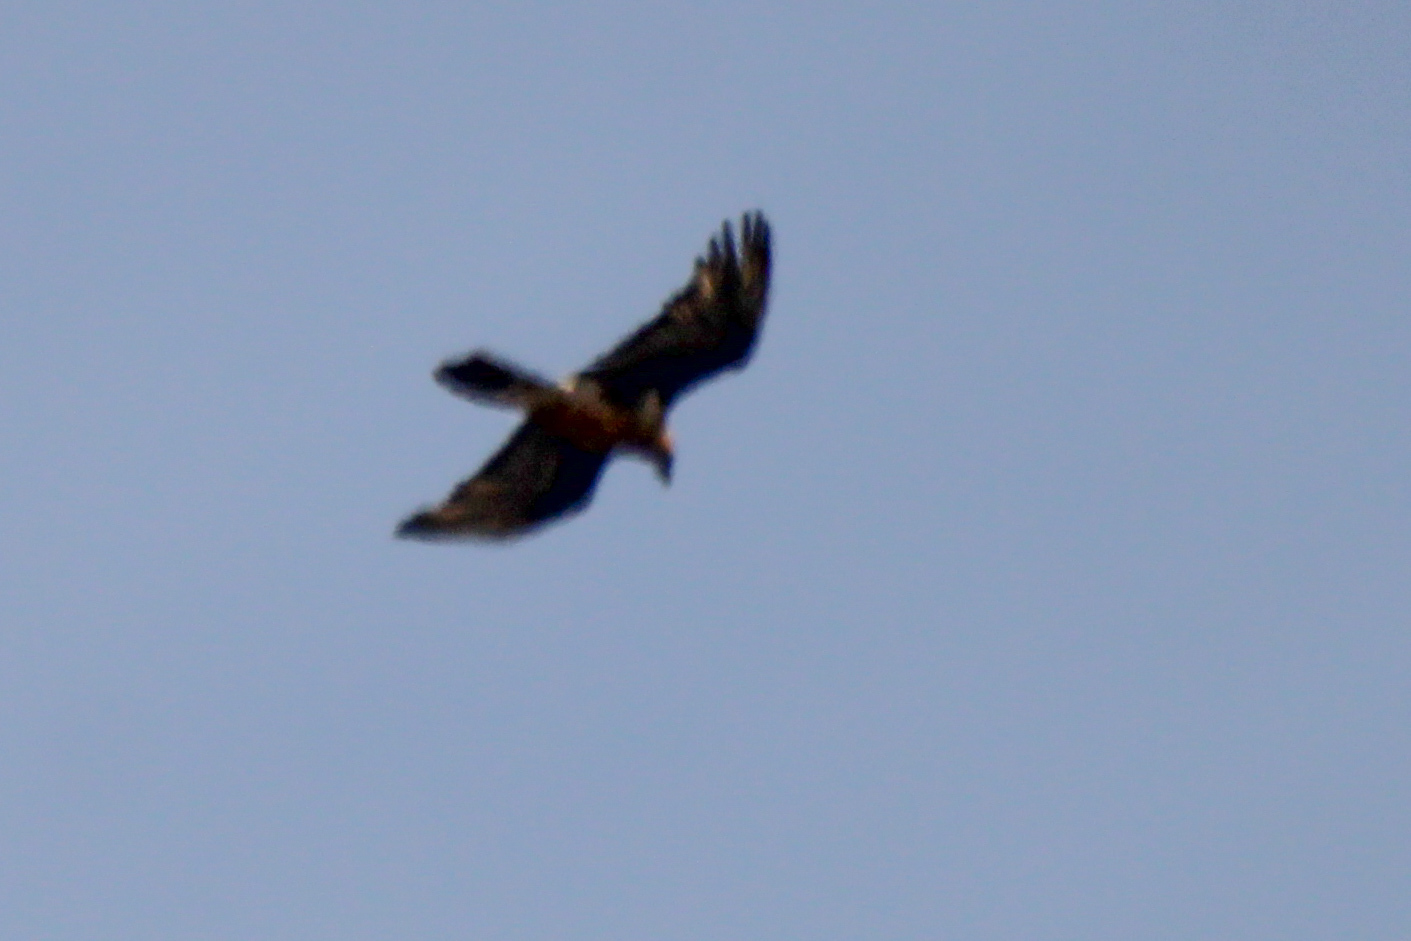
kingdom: Animalia
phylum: Chordata
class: Aves
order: Accipitriformes
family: Accipitridae
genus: Gypaetus
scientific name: Gypaetus barbatus
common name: Bearded vulture
